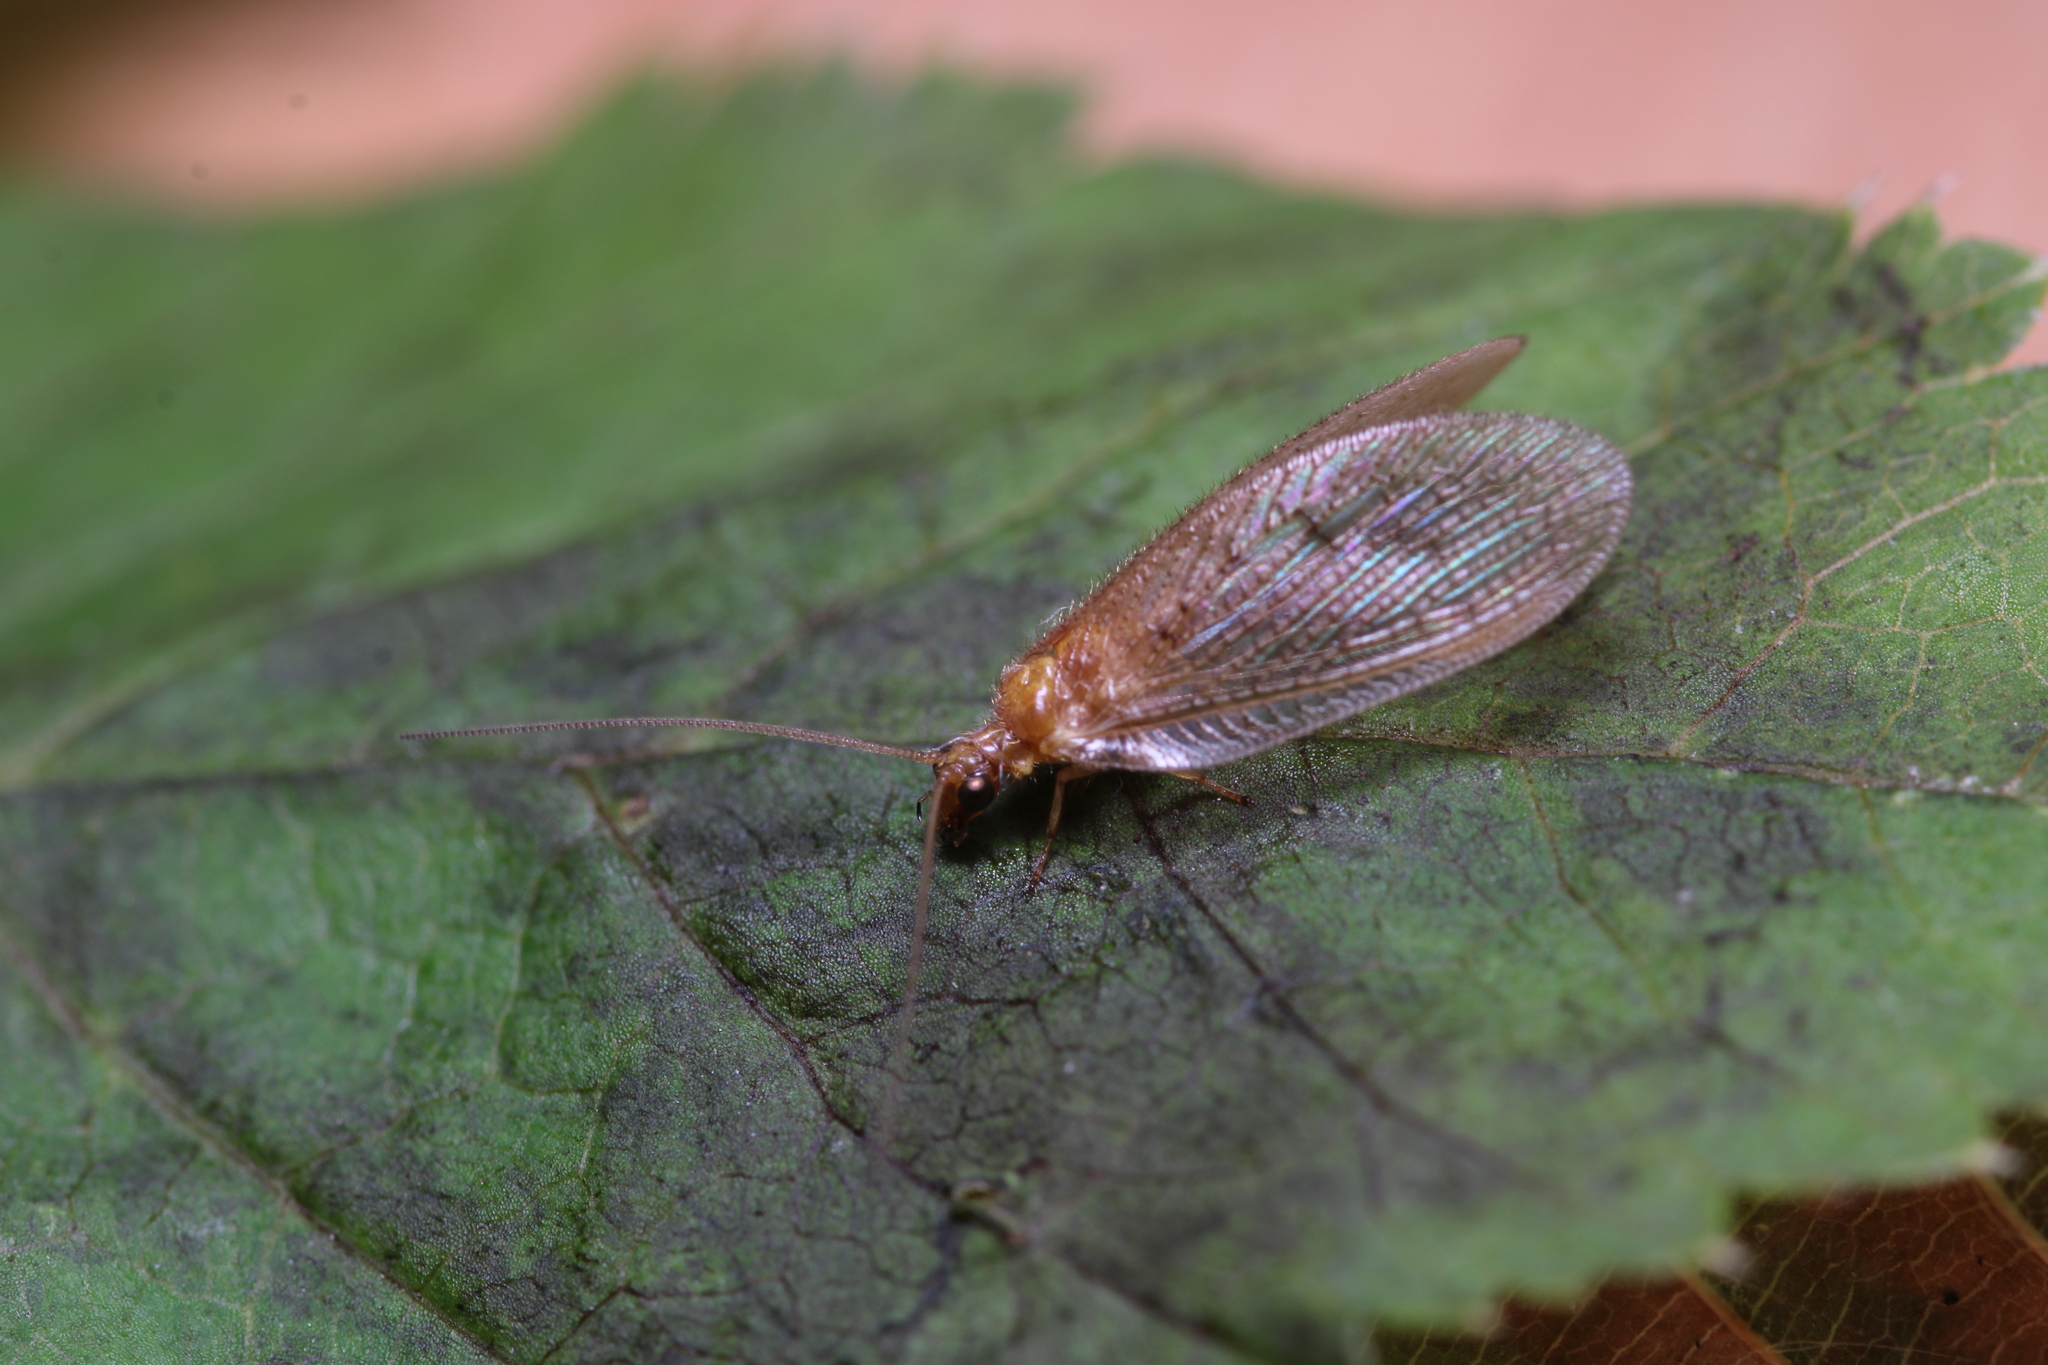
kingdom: Animalia
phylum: Arthropoda
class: Insecta
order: Neuroptera
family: Hemerobiidae
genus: Hemerobius
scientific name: Hemerobius stigma
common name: Brown pine lacewing
